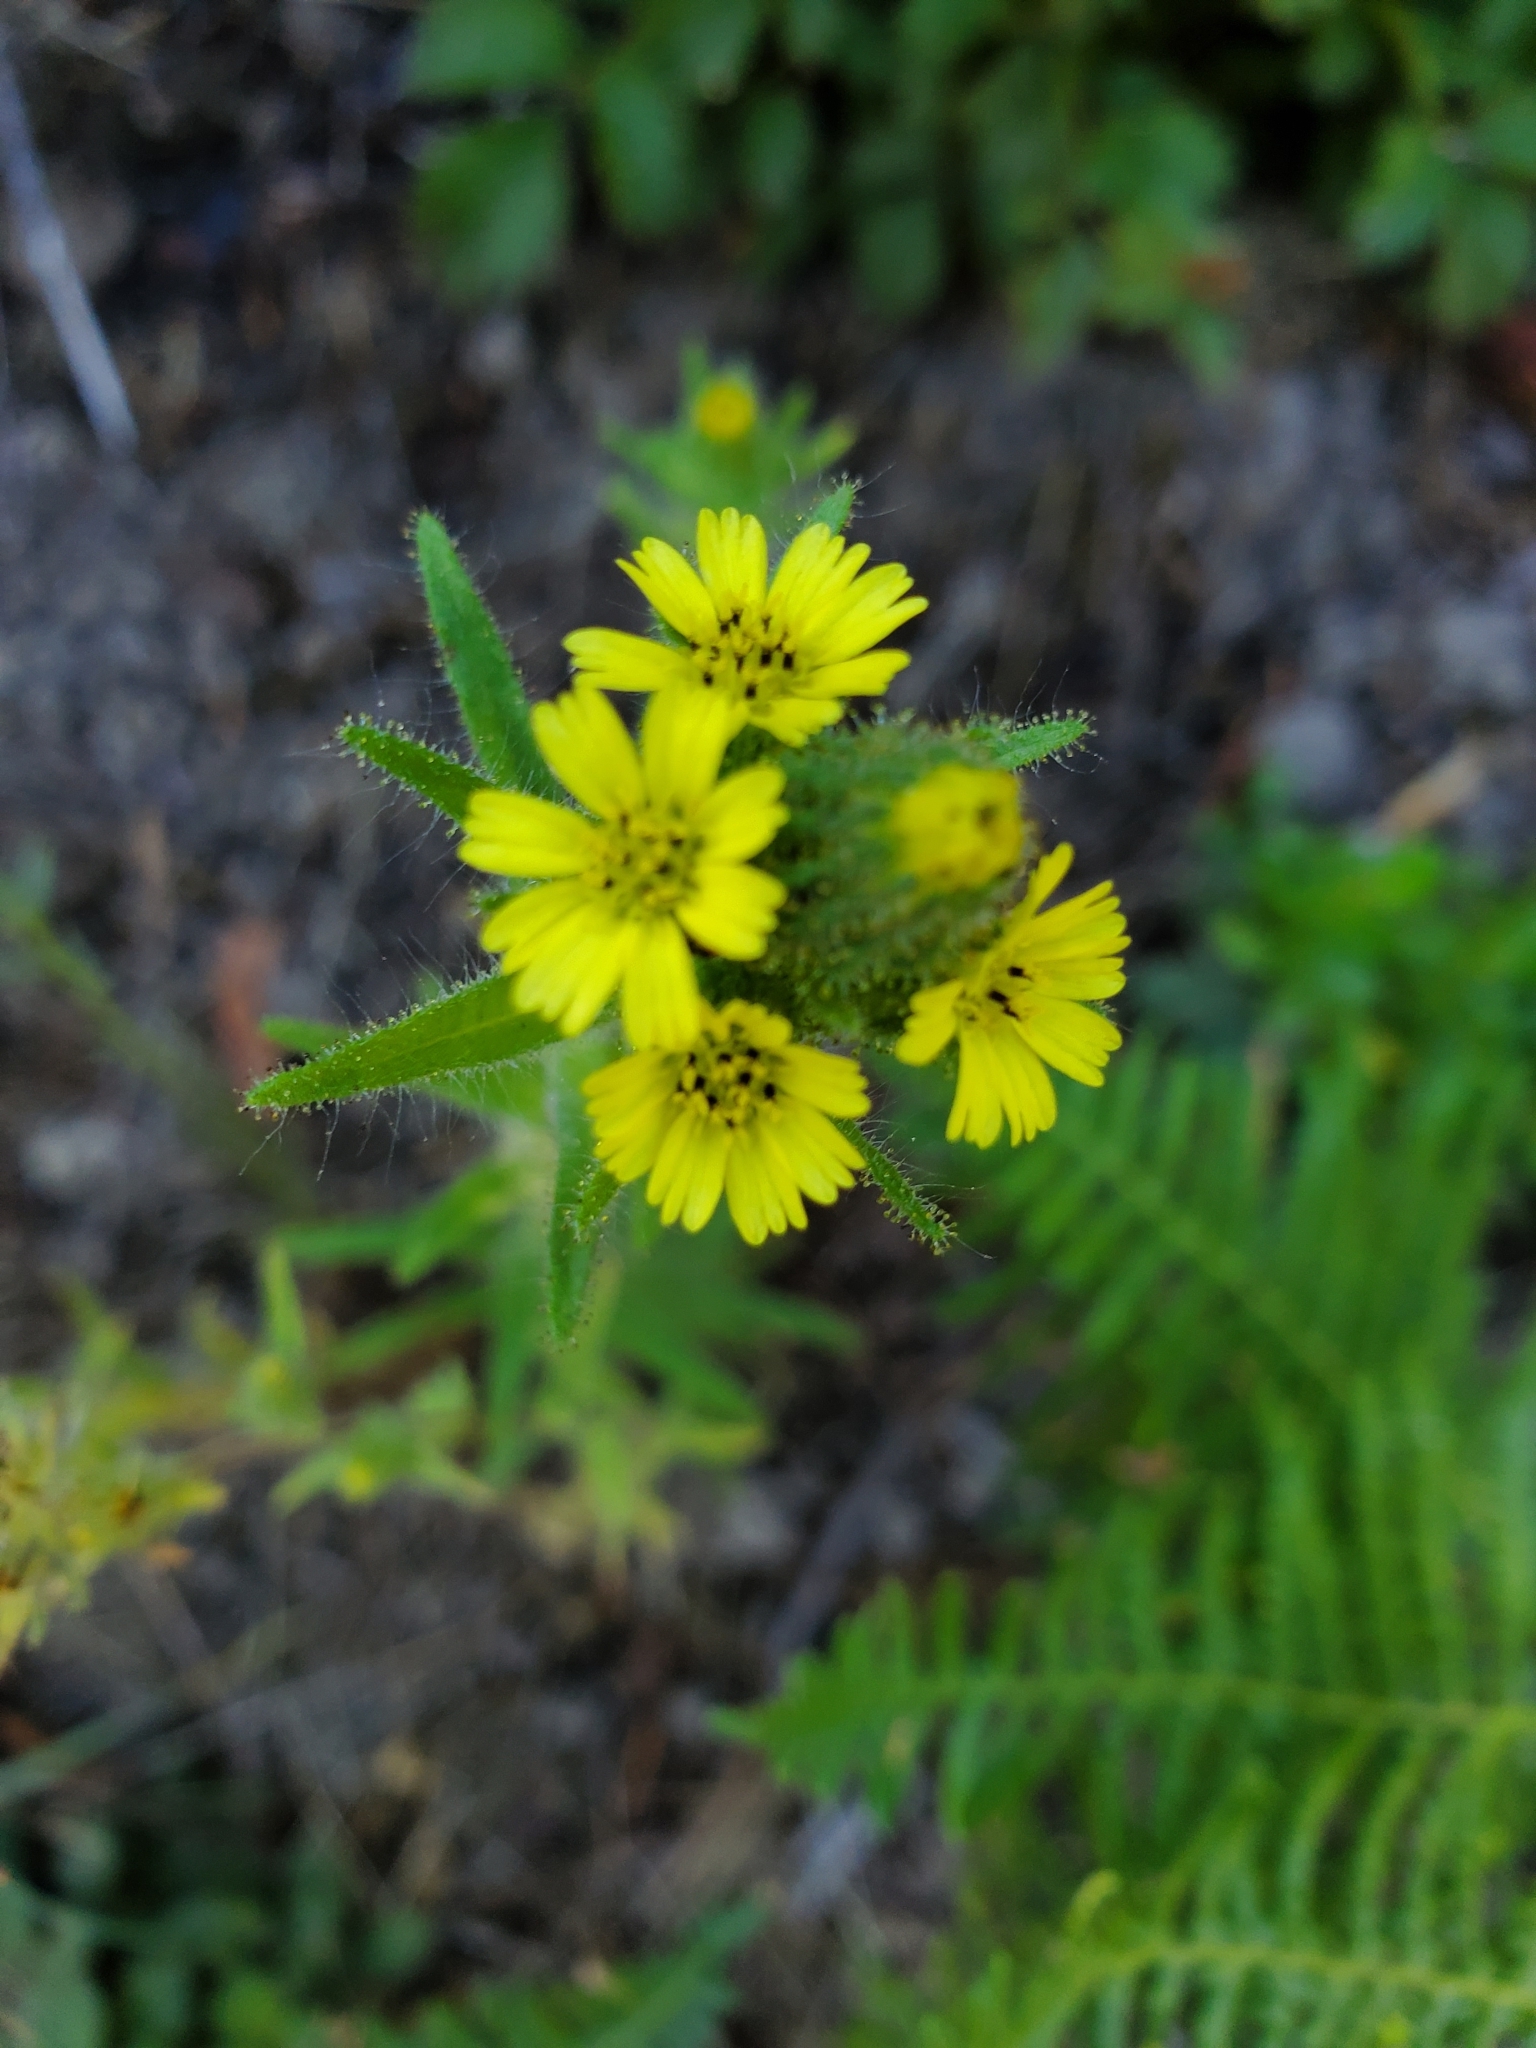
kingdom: Plantae
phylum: Tracheophyta
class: Magnoliopsida
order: Asterales
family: Asteraceae
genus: Madia
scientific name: Madia sativa
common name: Coast tarweed
